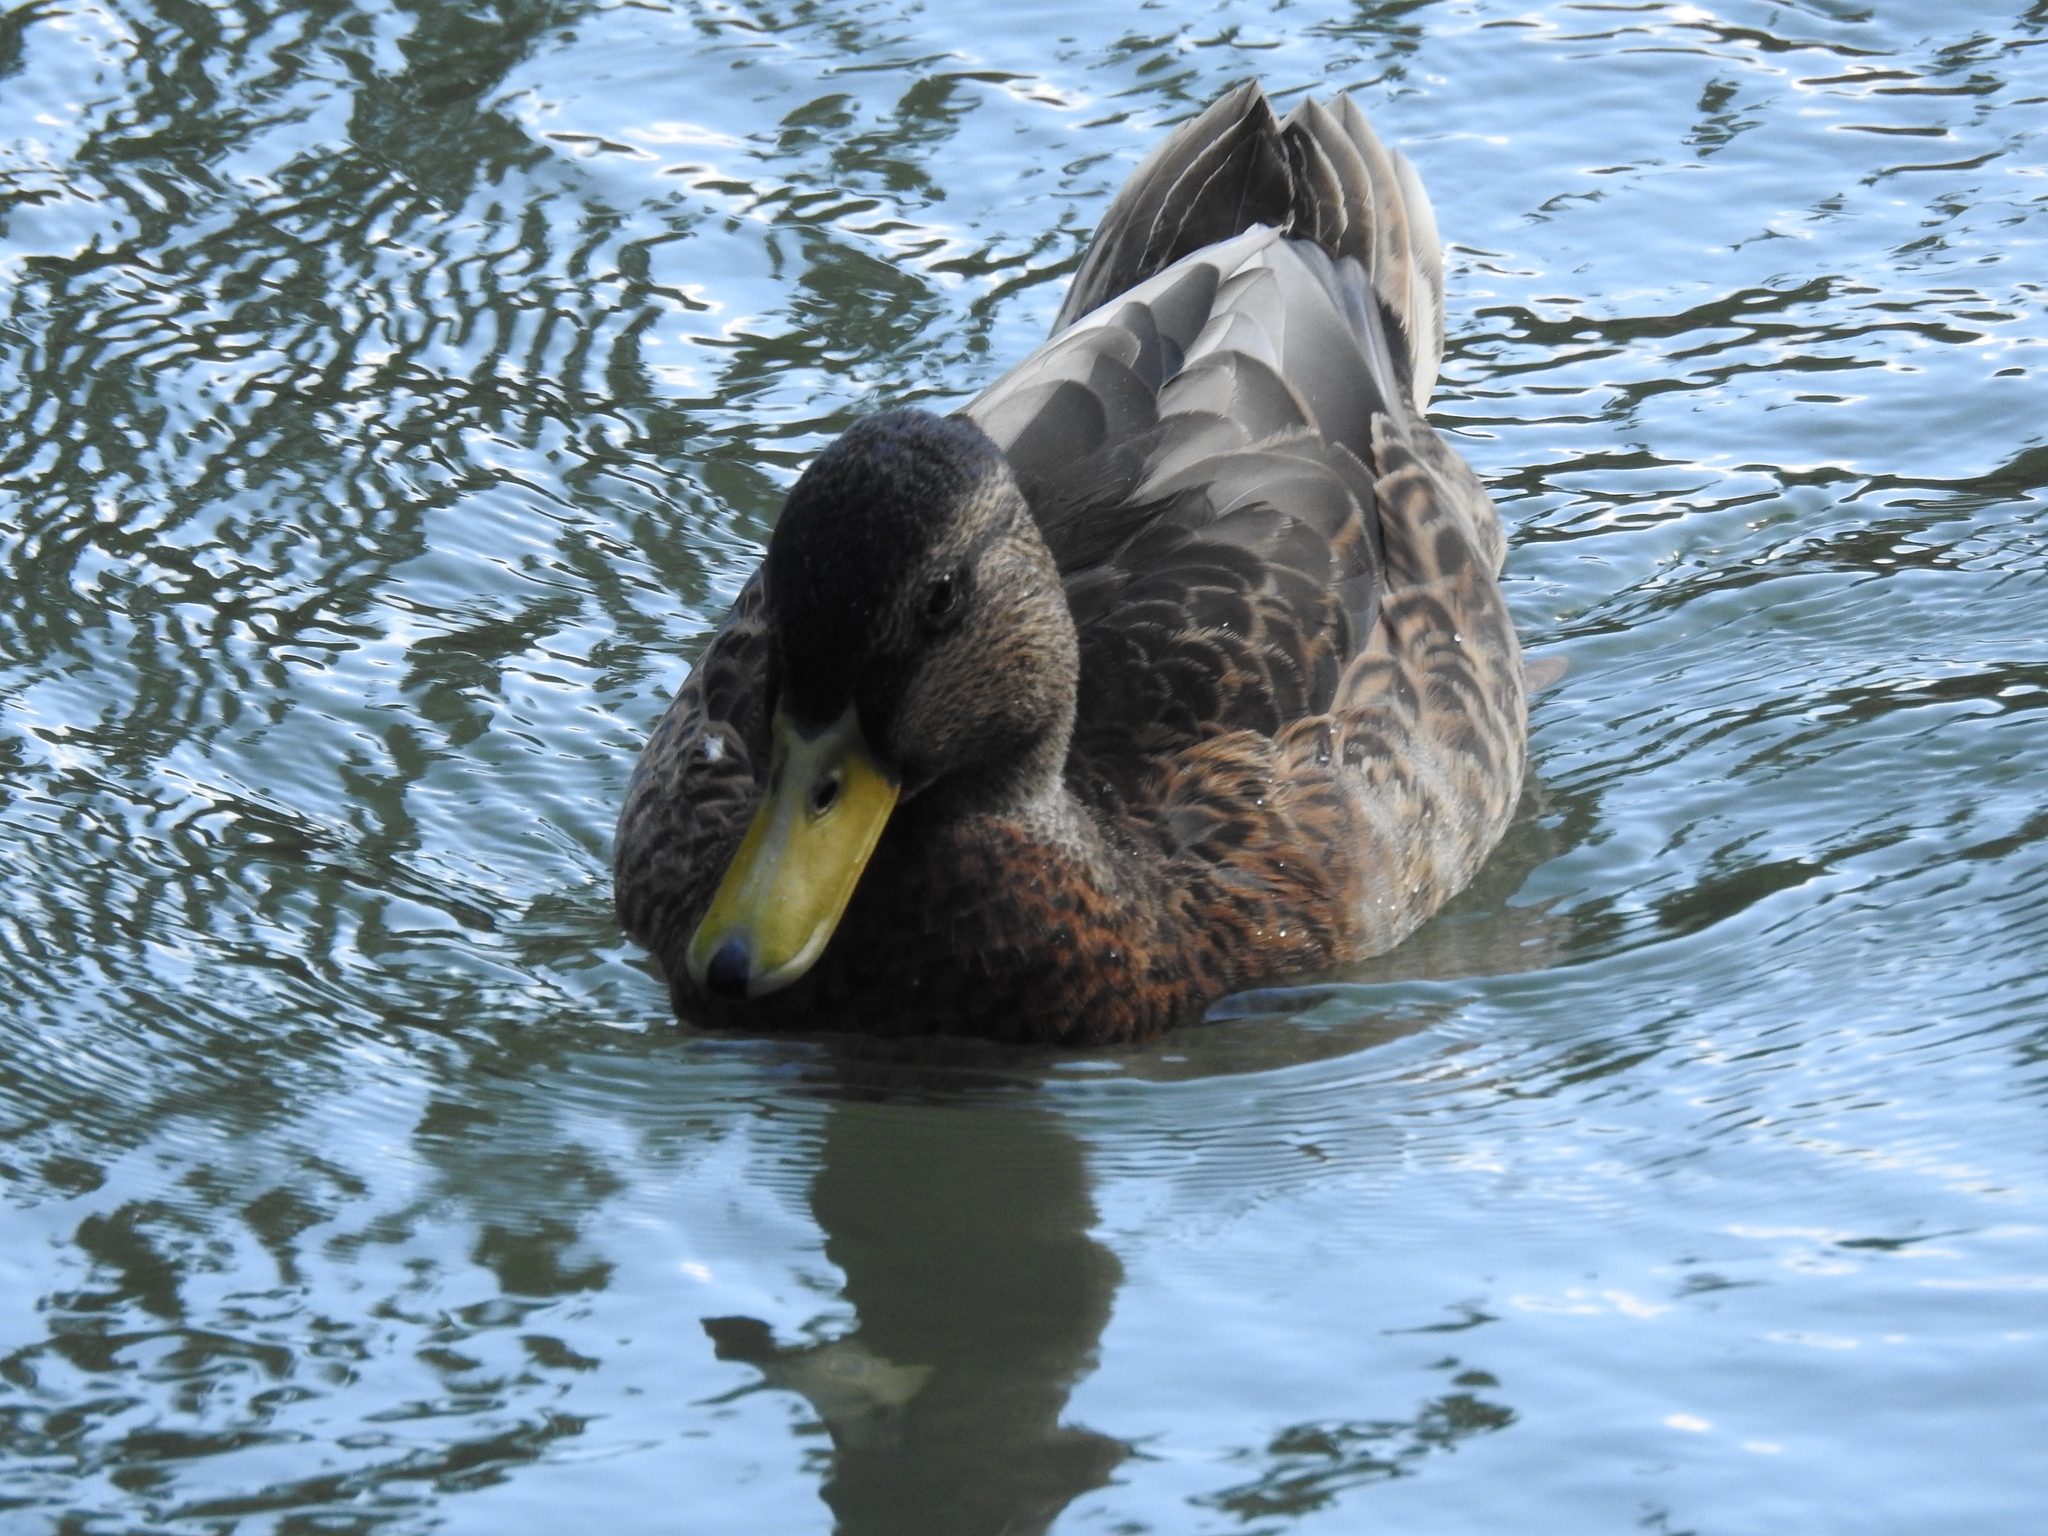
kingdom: Animalia
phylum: Chordata
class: Aves
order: Anseriformes
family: Anatidae
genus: Anas
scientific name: Anas platyrhynchos
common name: Mallard
